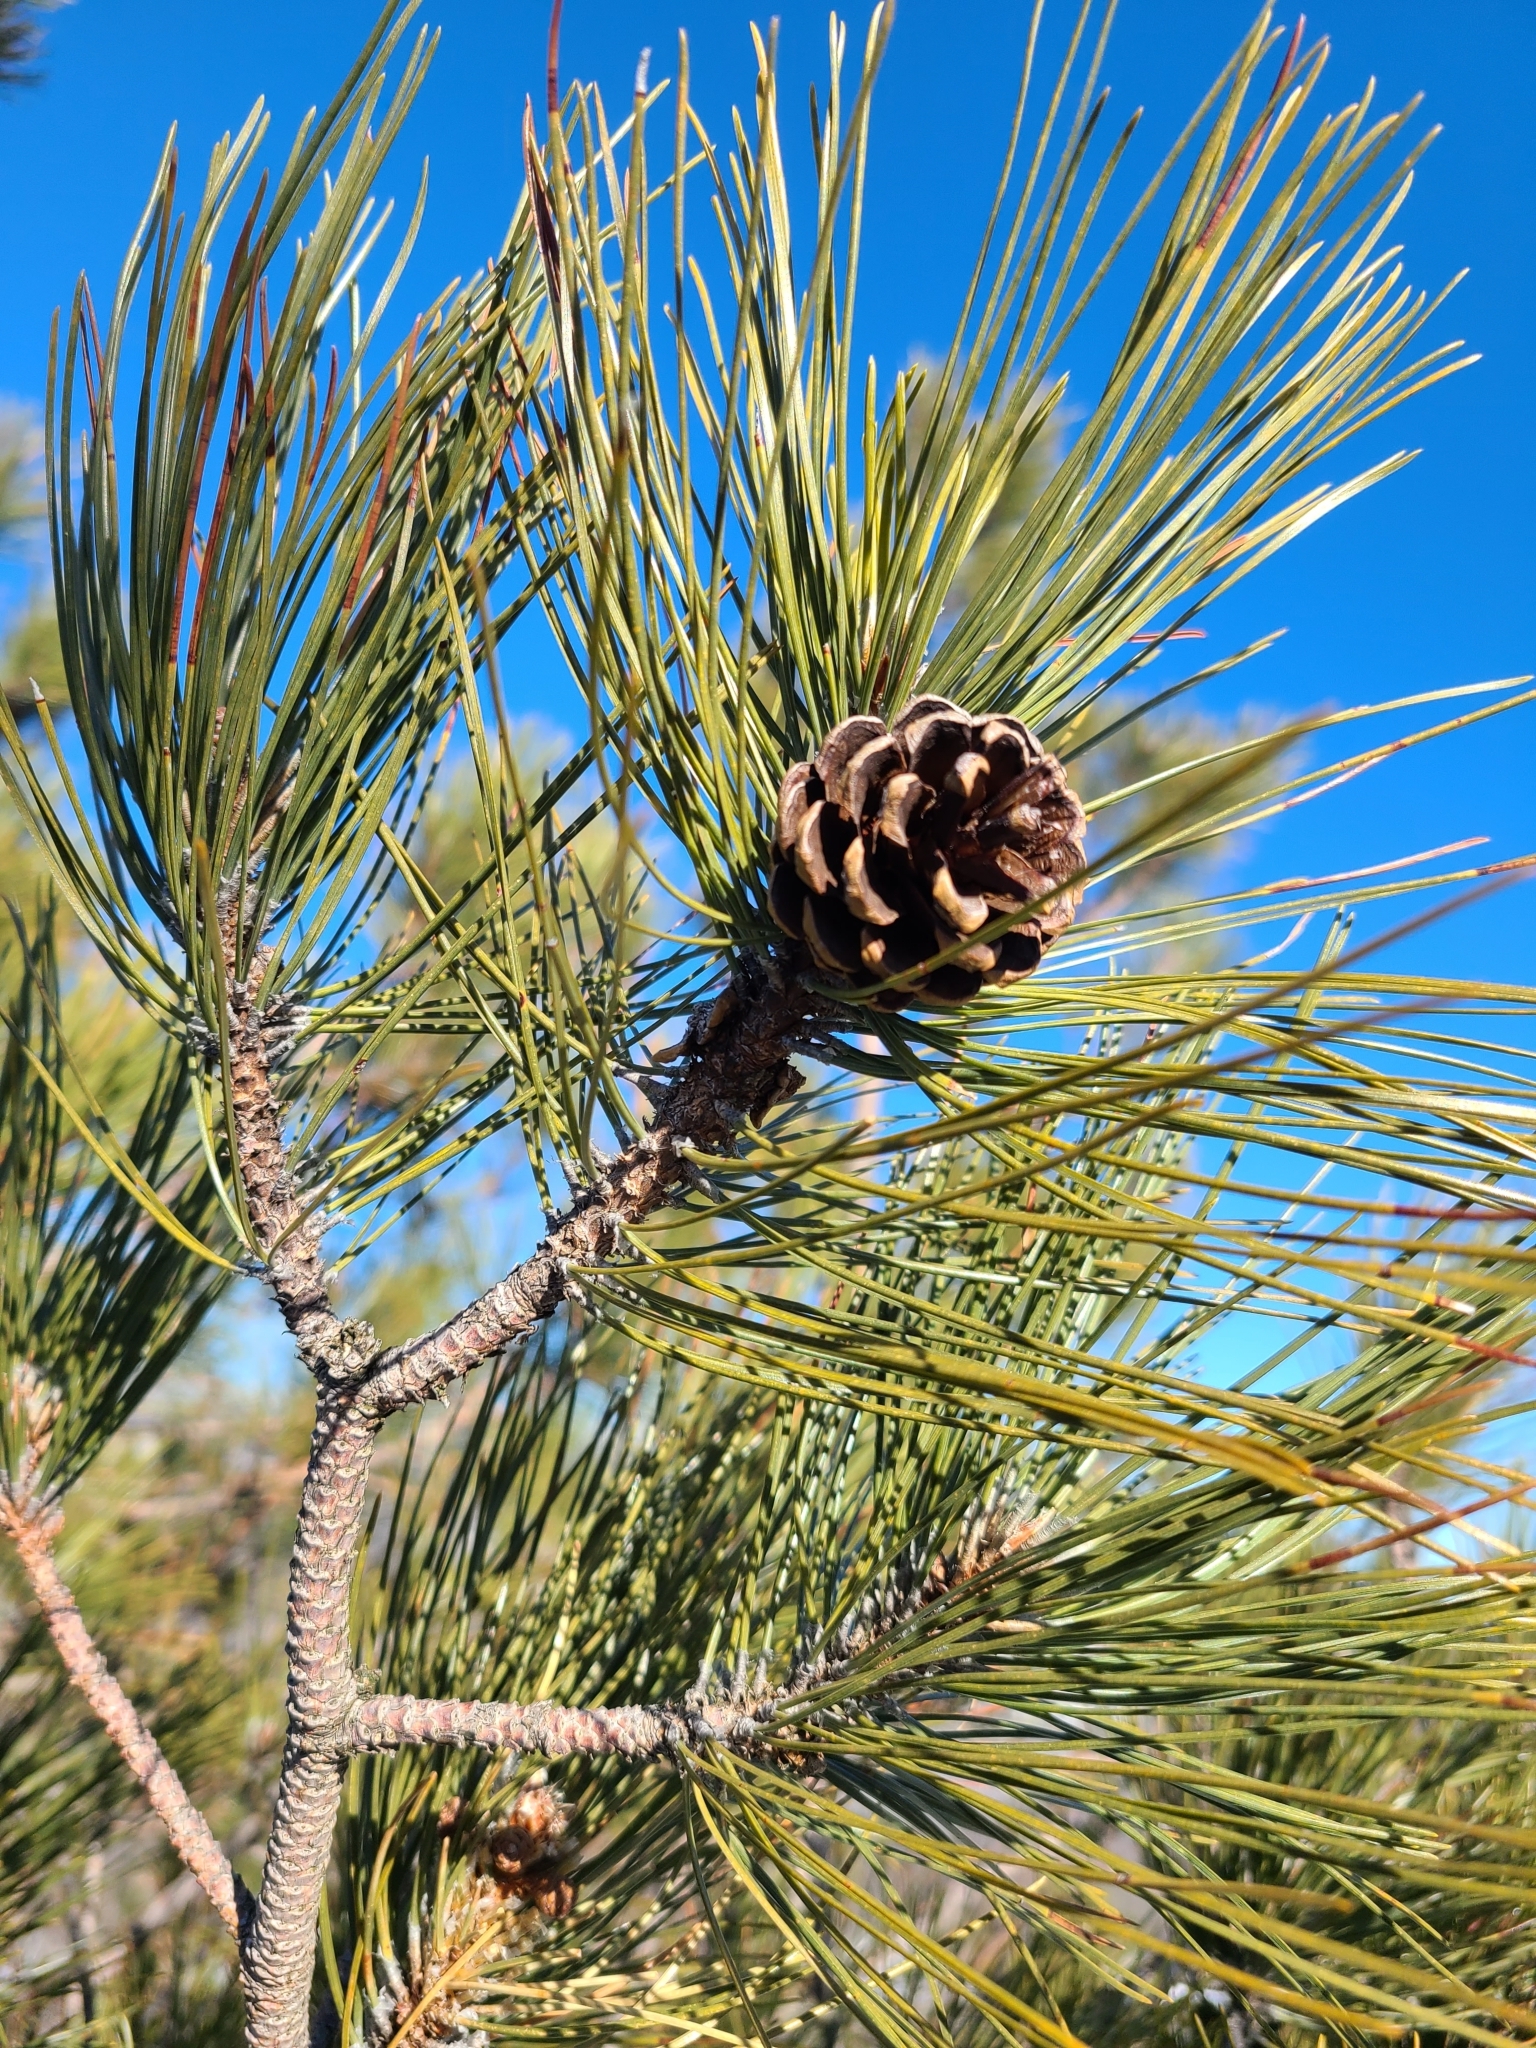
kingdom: Plantae
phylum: Tracheophyta
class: Pinopsida
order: Pinales
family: Pinaceae
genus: Pinus
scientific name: Pinus resinosa
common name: Norway pine
